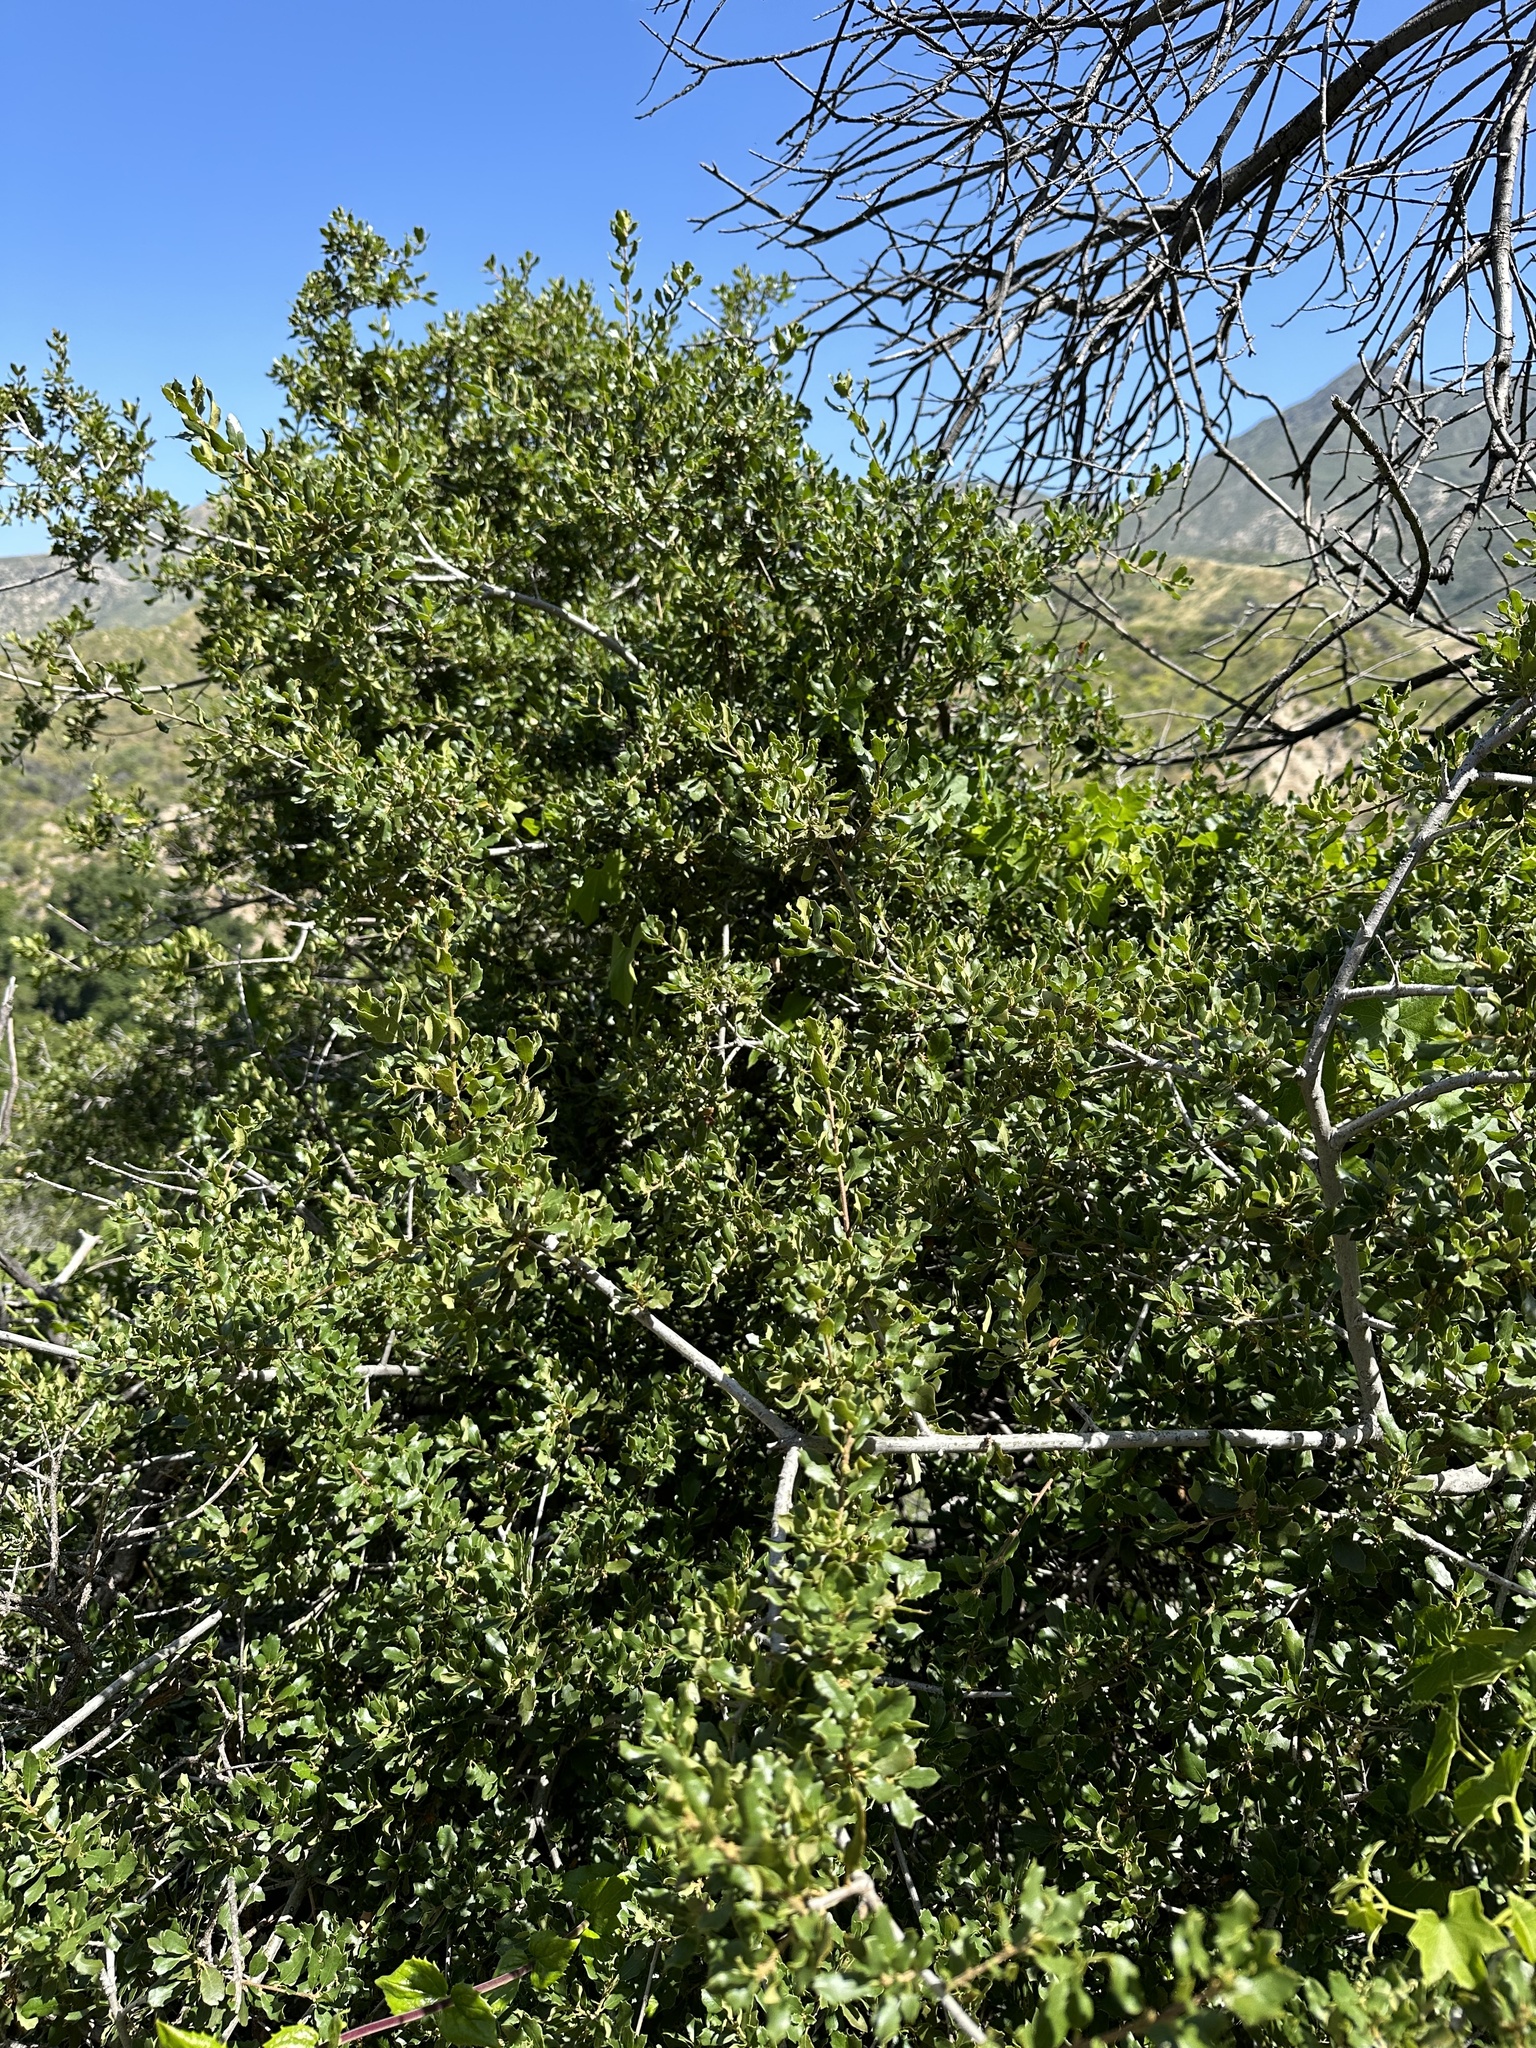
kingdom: Plantae
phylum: Tracheophyta
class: Magnoliopsida
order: Fagales
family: Fagaceae
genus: Quercus
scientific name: Quercus berberidifolia
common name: California scrub oak
